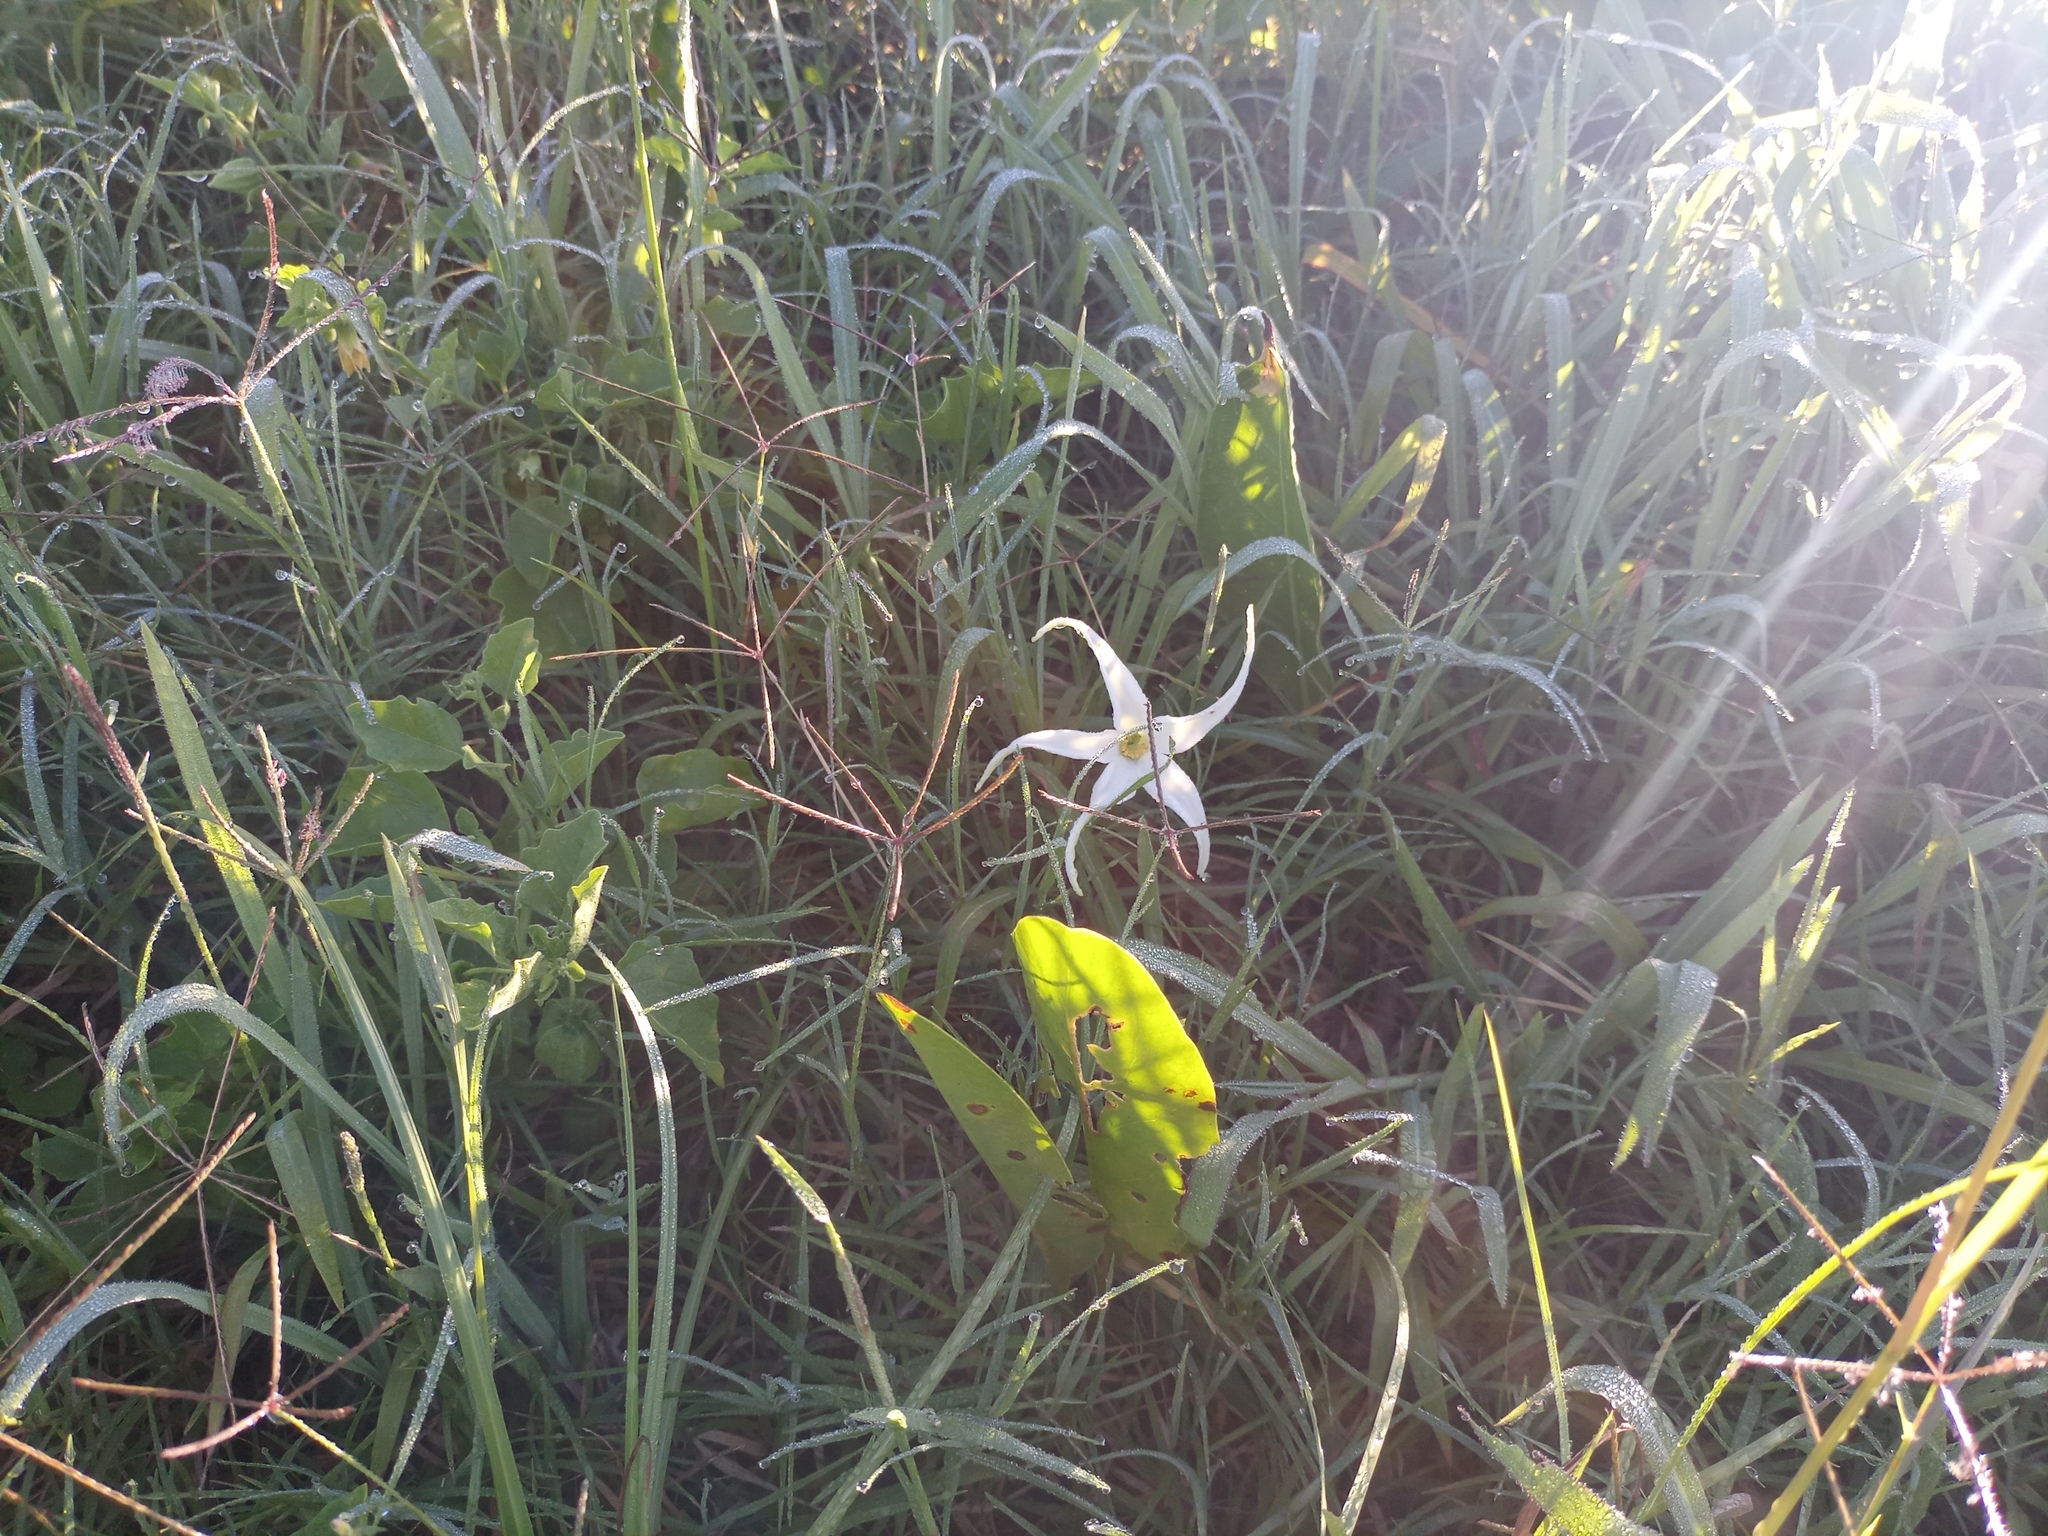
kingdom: Plantae
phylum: Tracheophyta
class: Magnoliopsida
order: Solanales
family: Solanaceae
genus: Jaborosa
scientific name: Jaborosa integrifolia
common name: Springblossom
